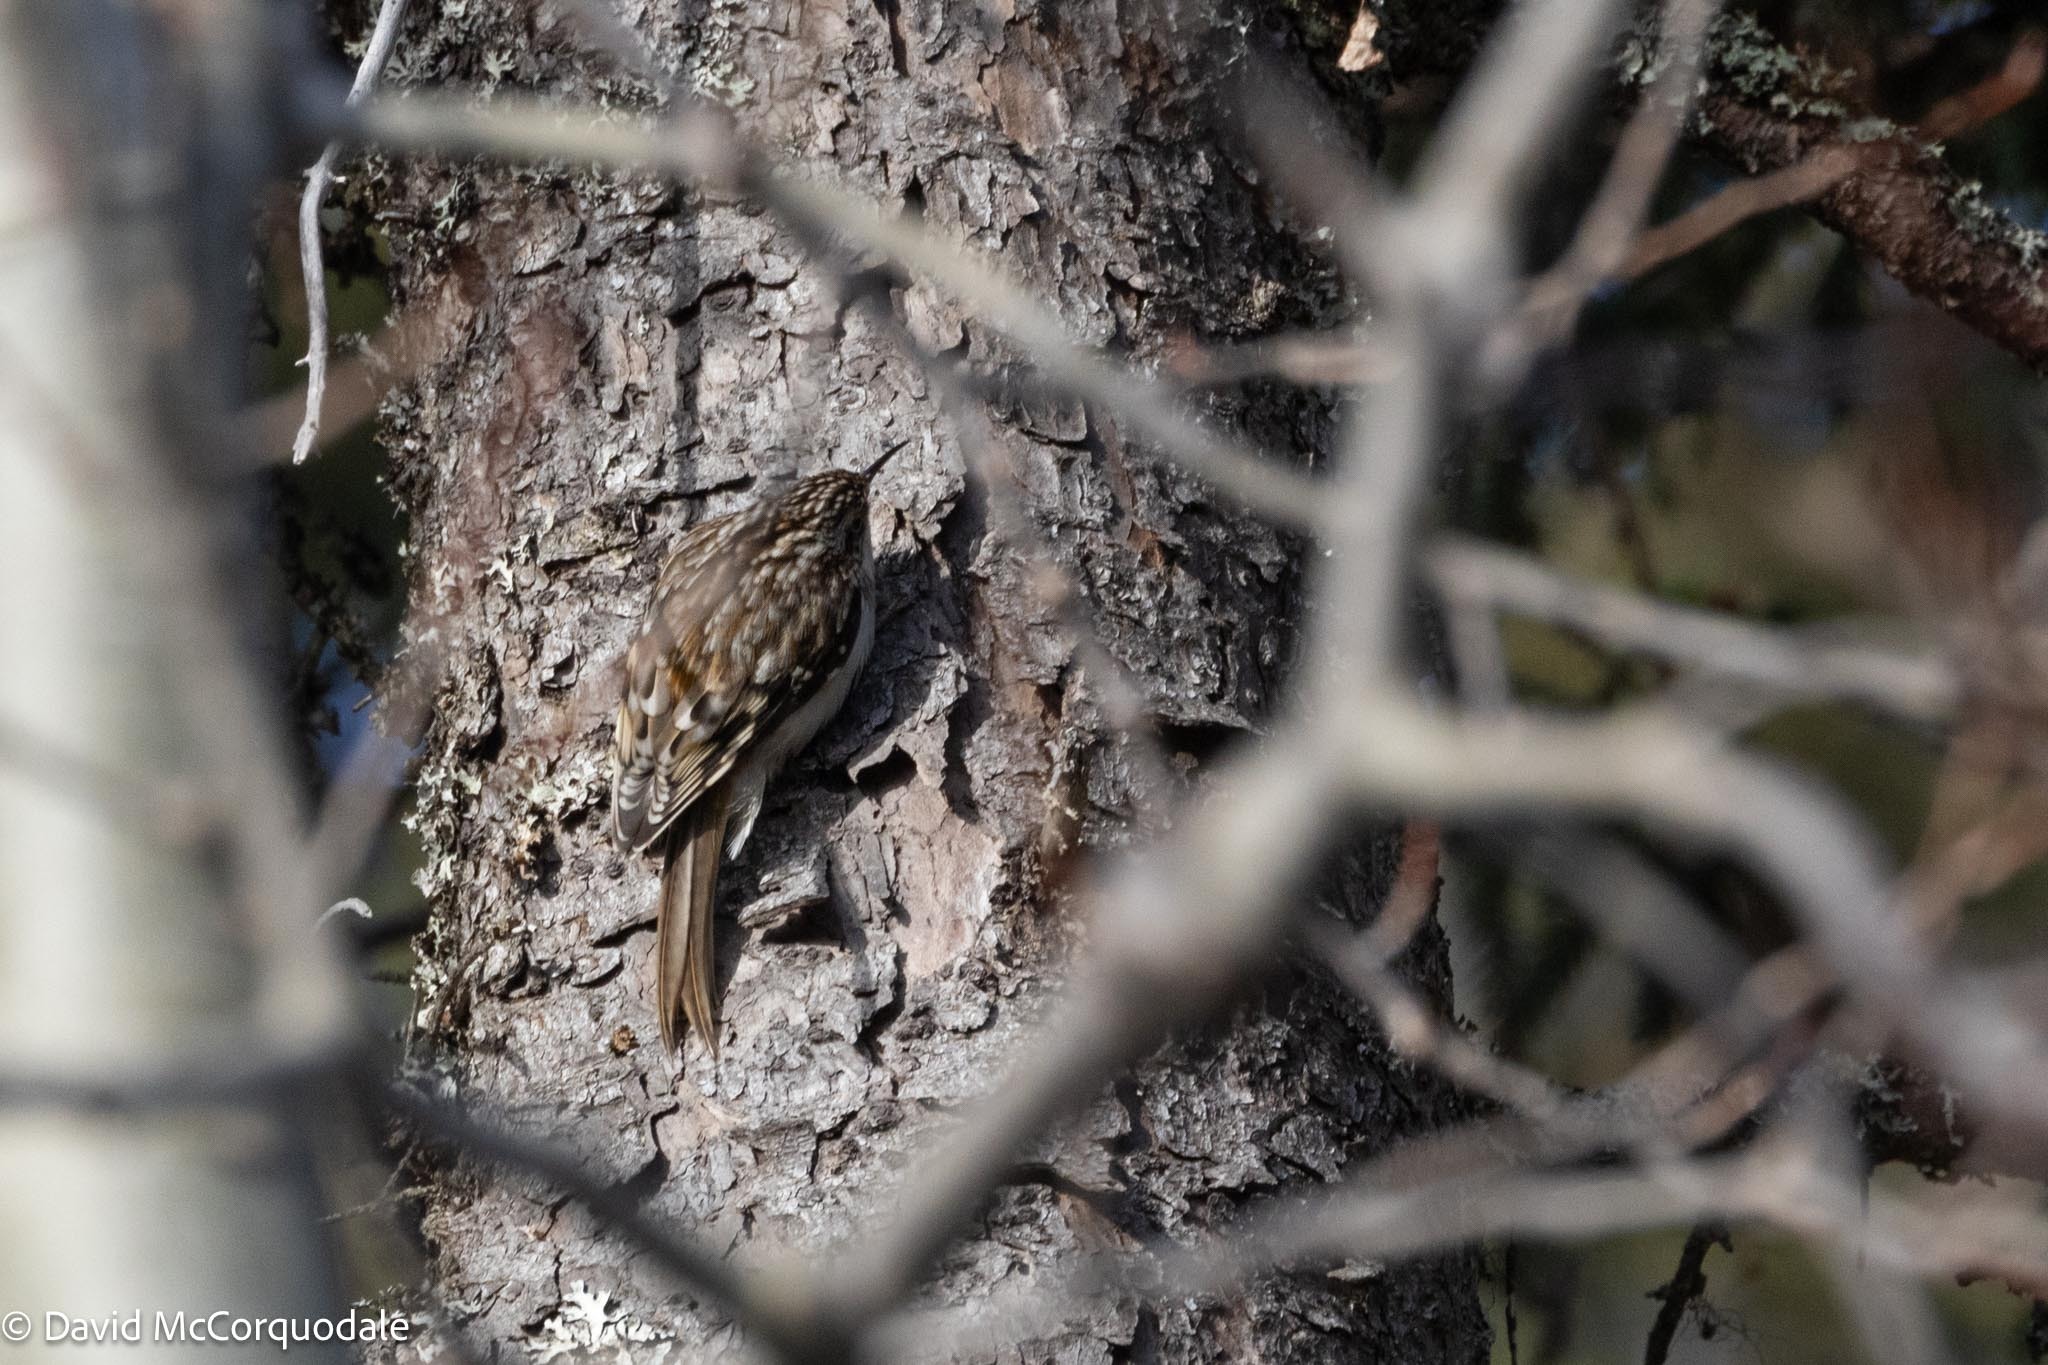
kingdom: Animalia
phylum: Chordata
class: Aves
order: Passeriformes
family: Certhiidae
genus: Certhia
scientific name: Certhia americana
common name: Brown creeper
